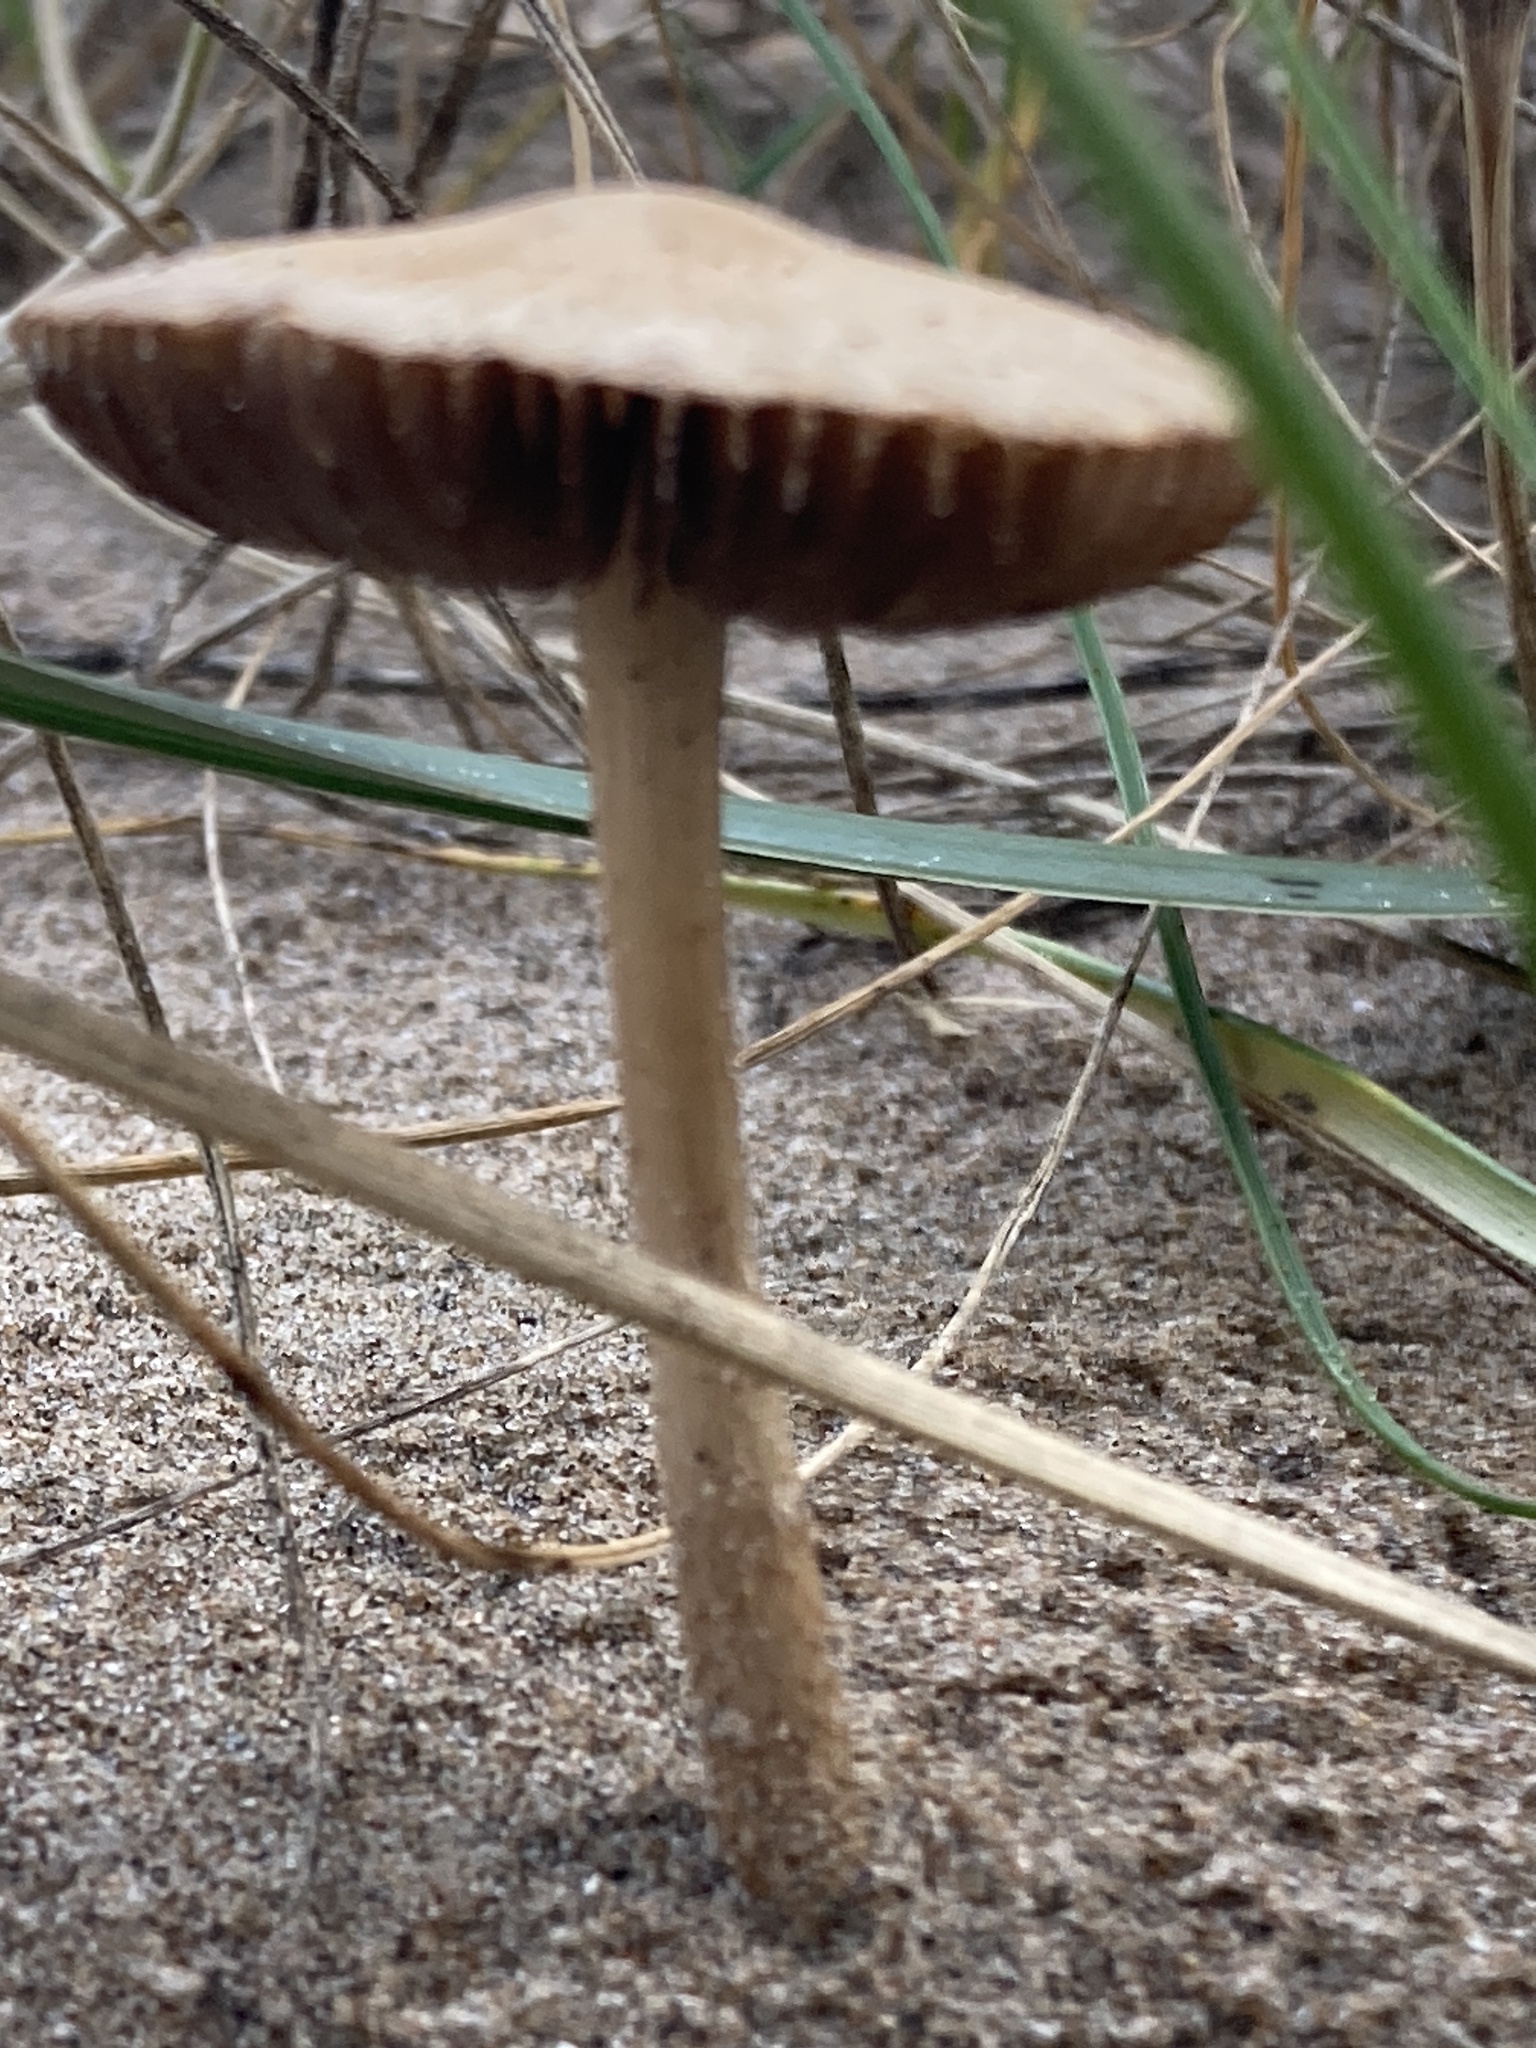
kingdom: Fungi
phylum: Basidiomycota
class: Agaricomycetes
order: Agaricales
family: Psathyrellaceae
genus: Psathyrella
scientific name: Psathyrella ammophila
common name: Dune brittlestem
